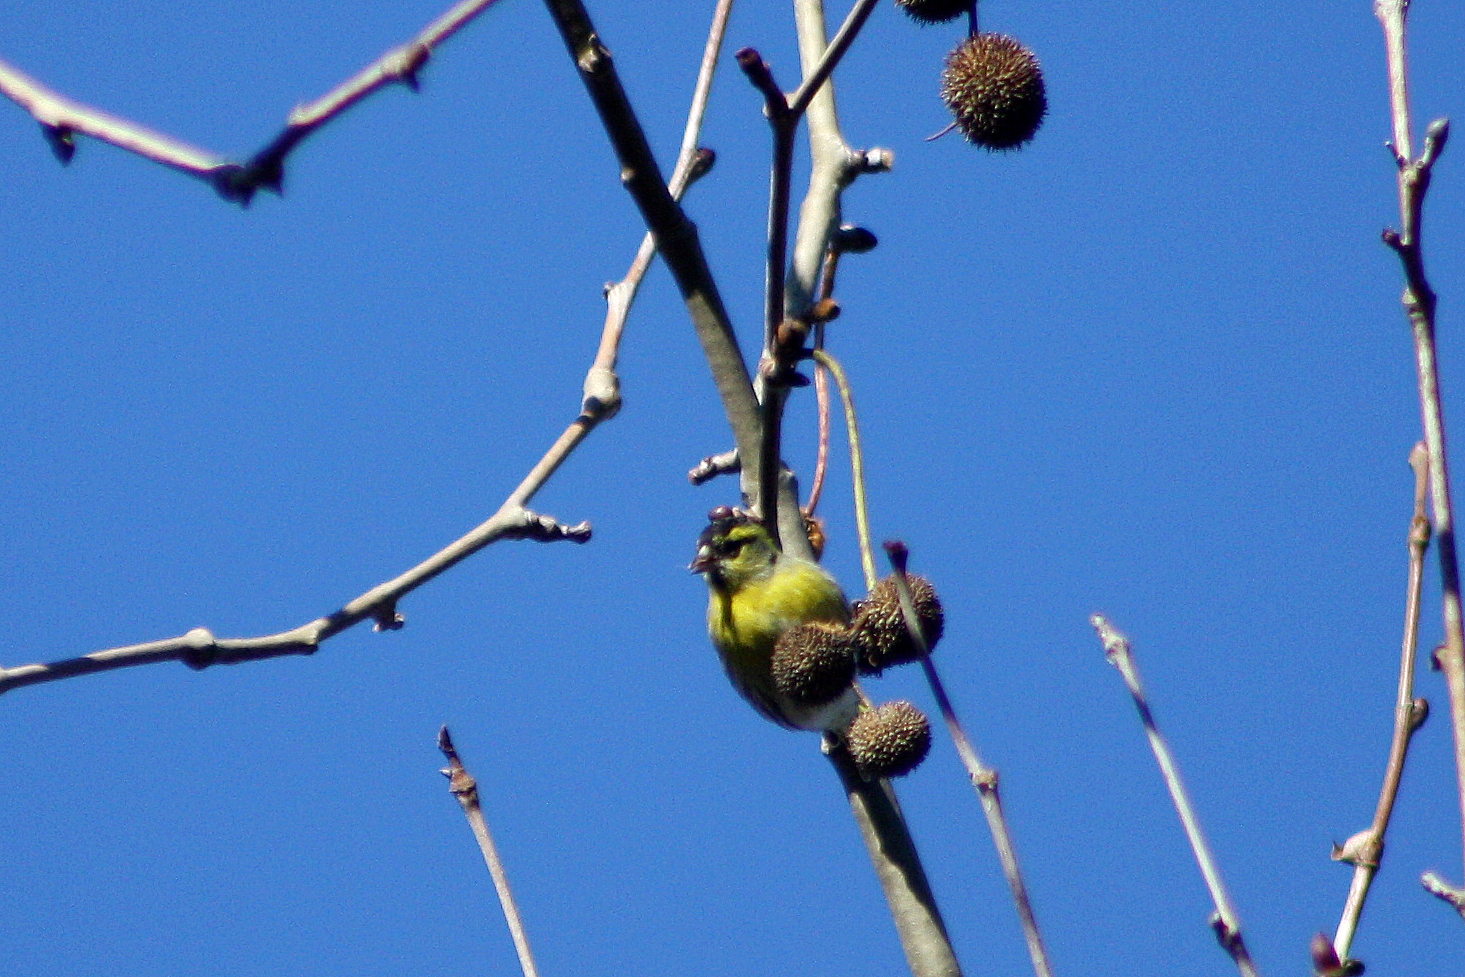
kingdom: Animalia
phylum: Chordata
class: Aves
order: Passeriformes
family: Fringillidae
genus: Spinus
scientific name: Spinus spinus
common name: Eurasian siskin
